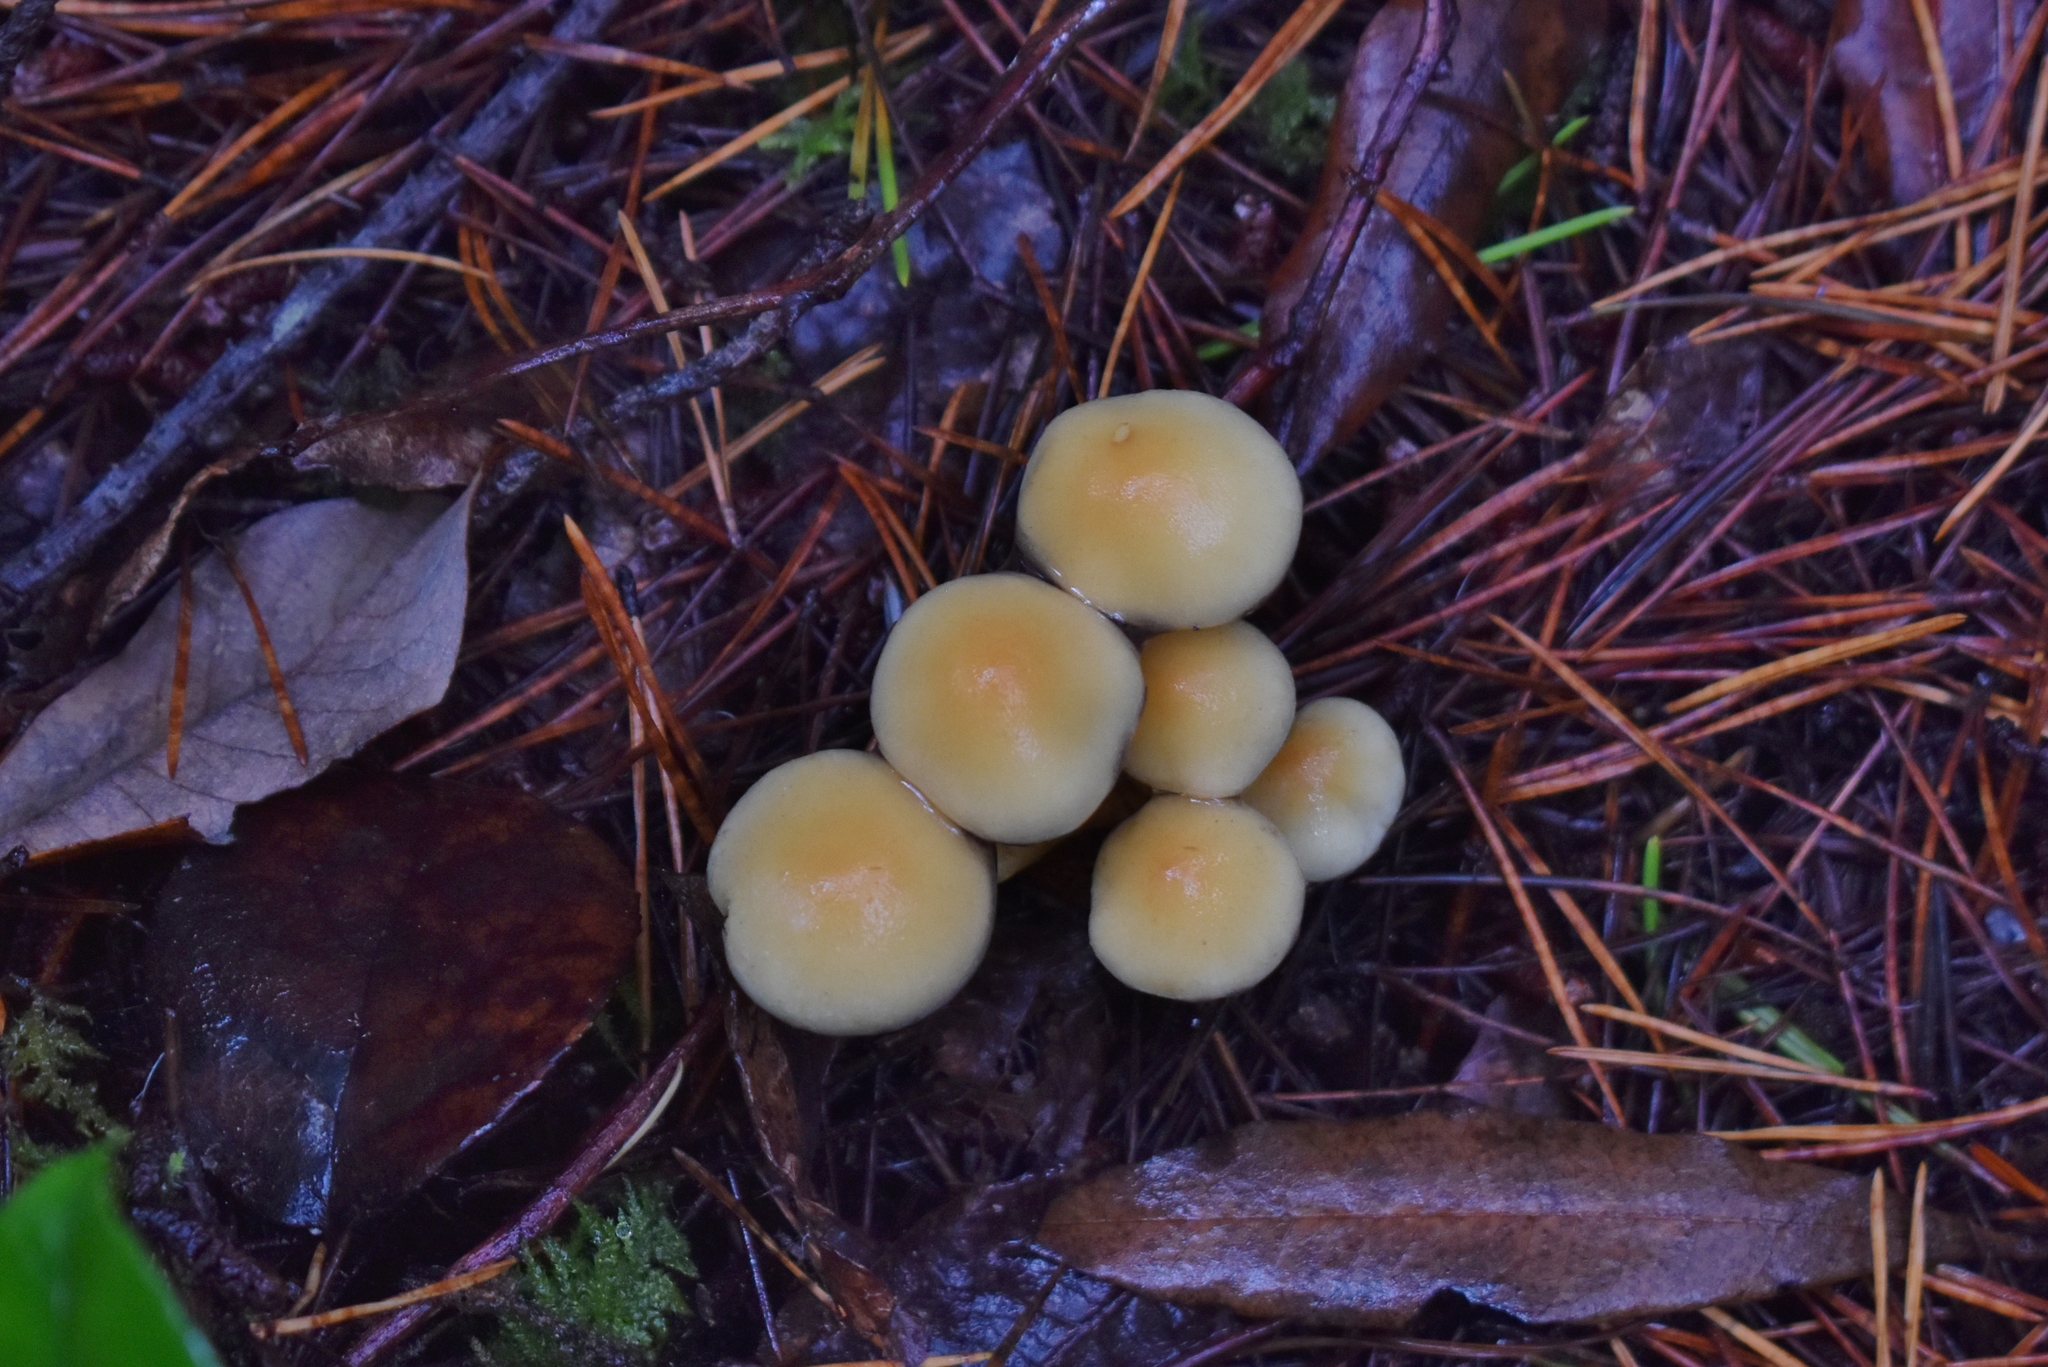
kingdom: Fungi
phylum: Basidiomycota
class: Agaricomycetes
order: Agaricales
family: Strophariaceae
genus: Hypholoma
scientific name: Hypholoma fasciculare
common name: Sulphur tuft
